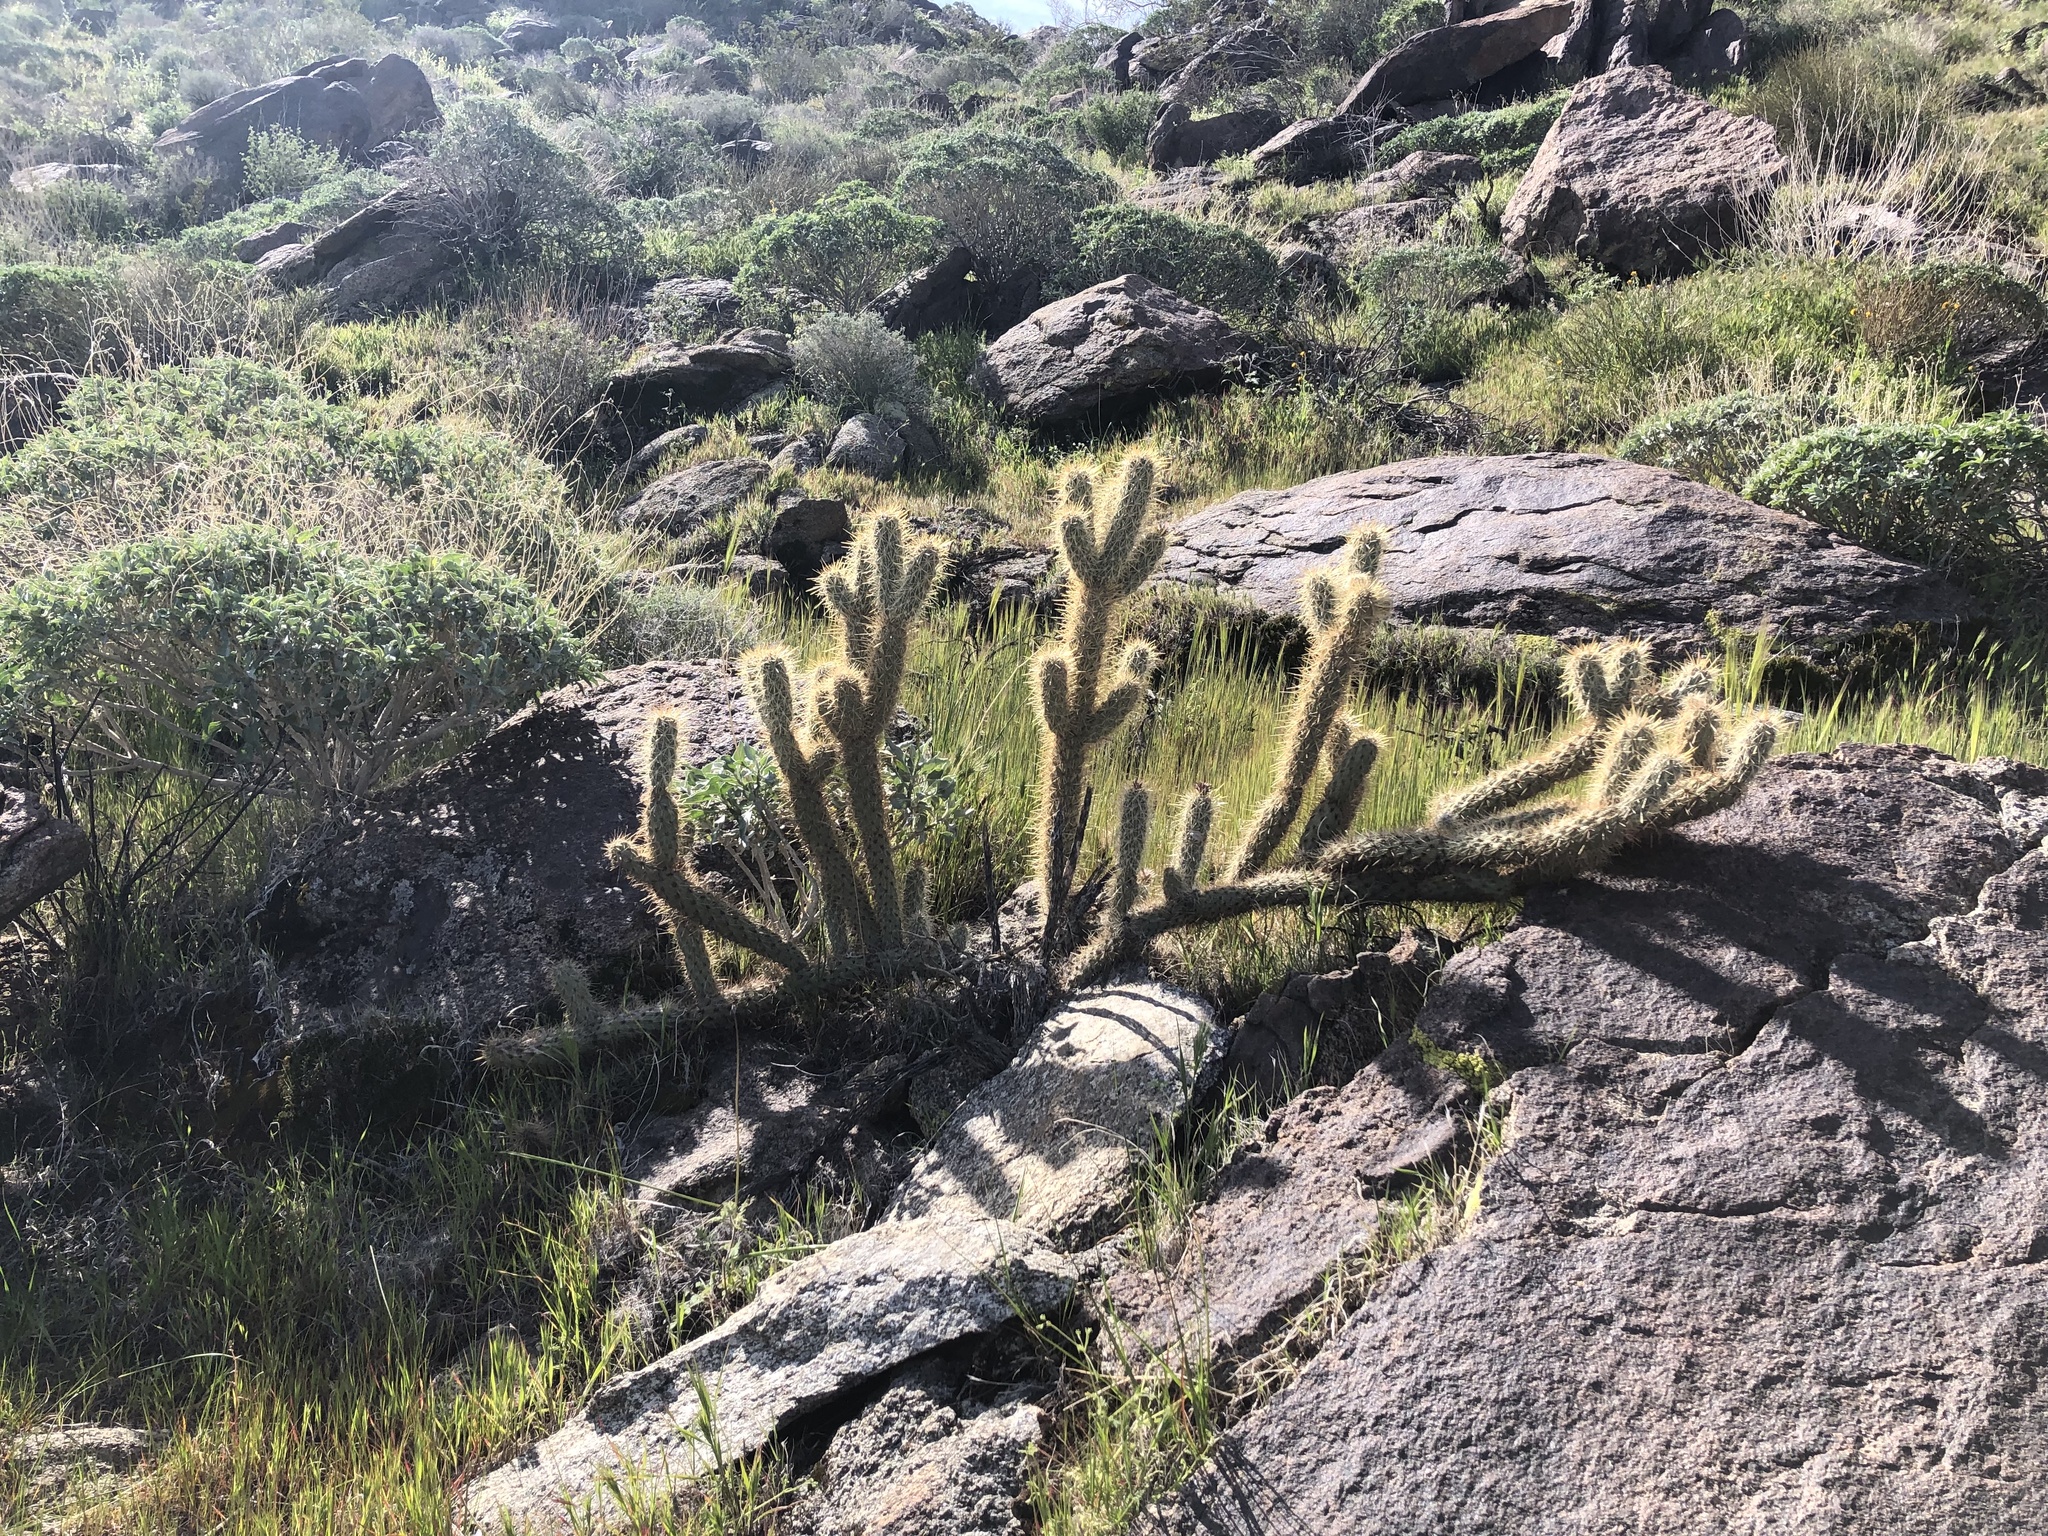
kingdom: Plantae
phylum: Tracheophyta
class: Magnoliopsida
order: Caryophyllales
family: Cactaceae
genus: Cylindropuntia
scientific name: Cylindropuntia ganderi
